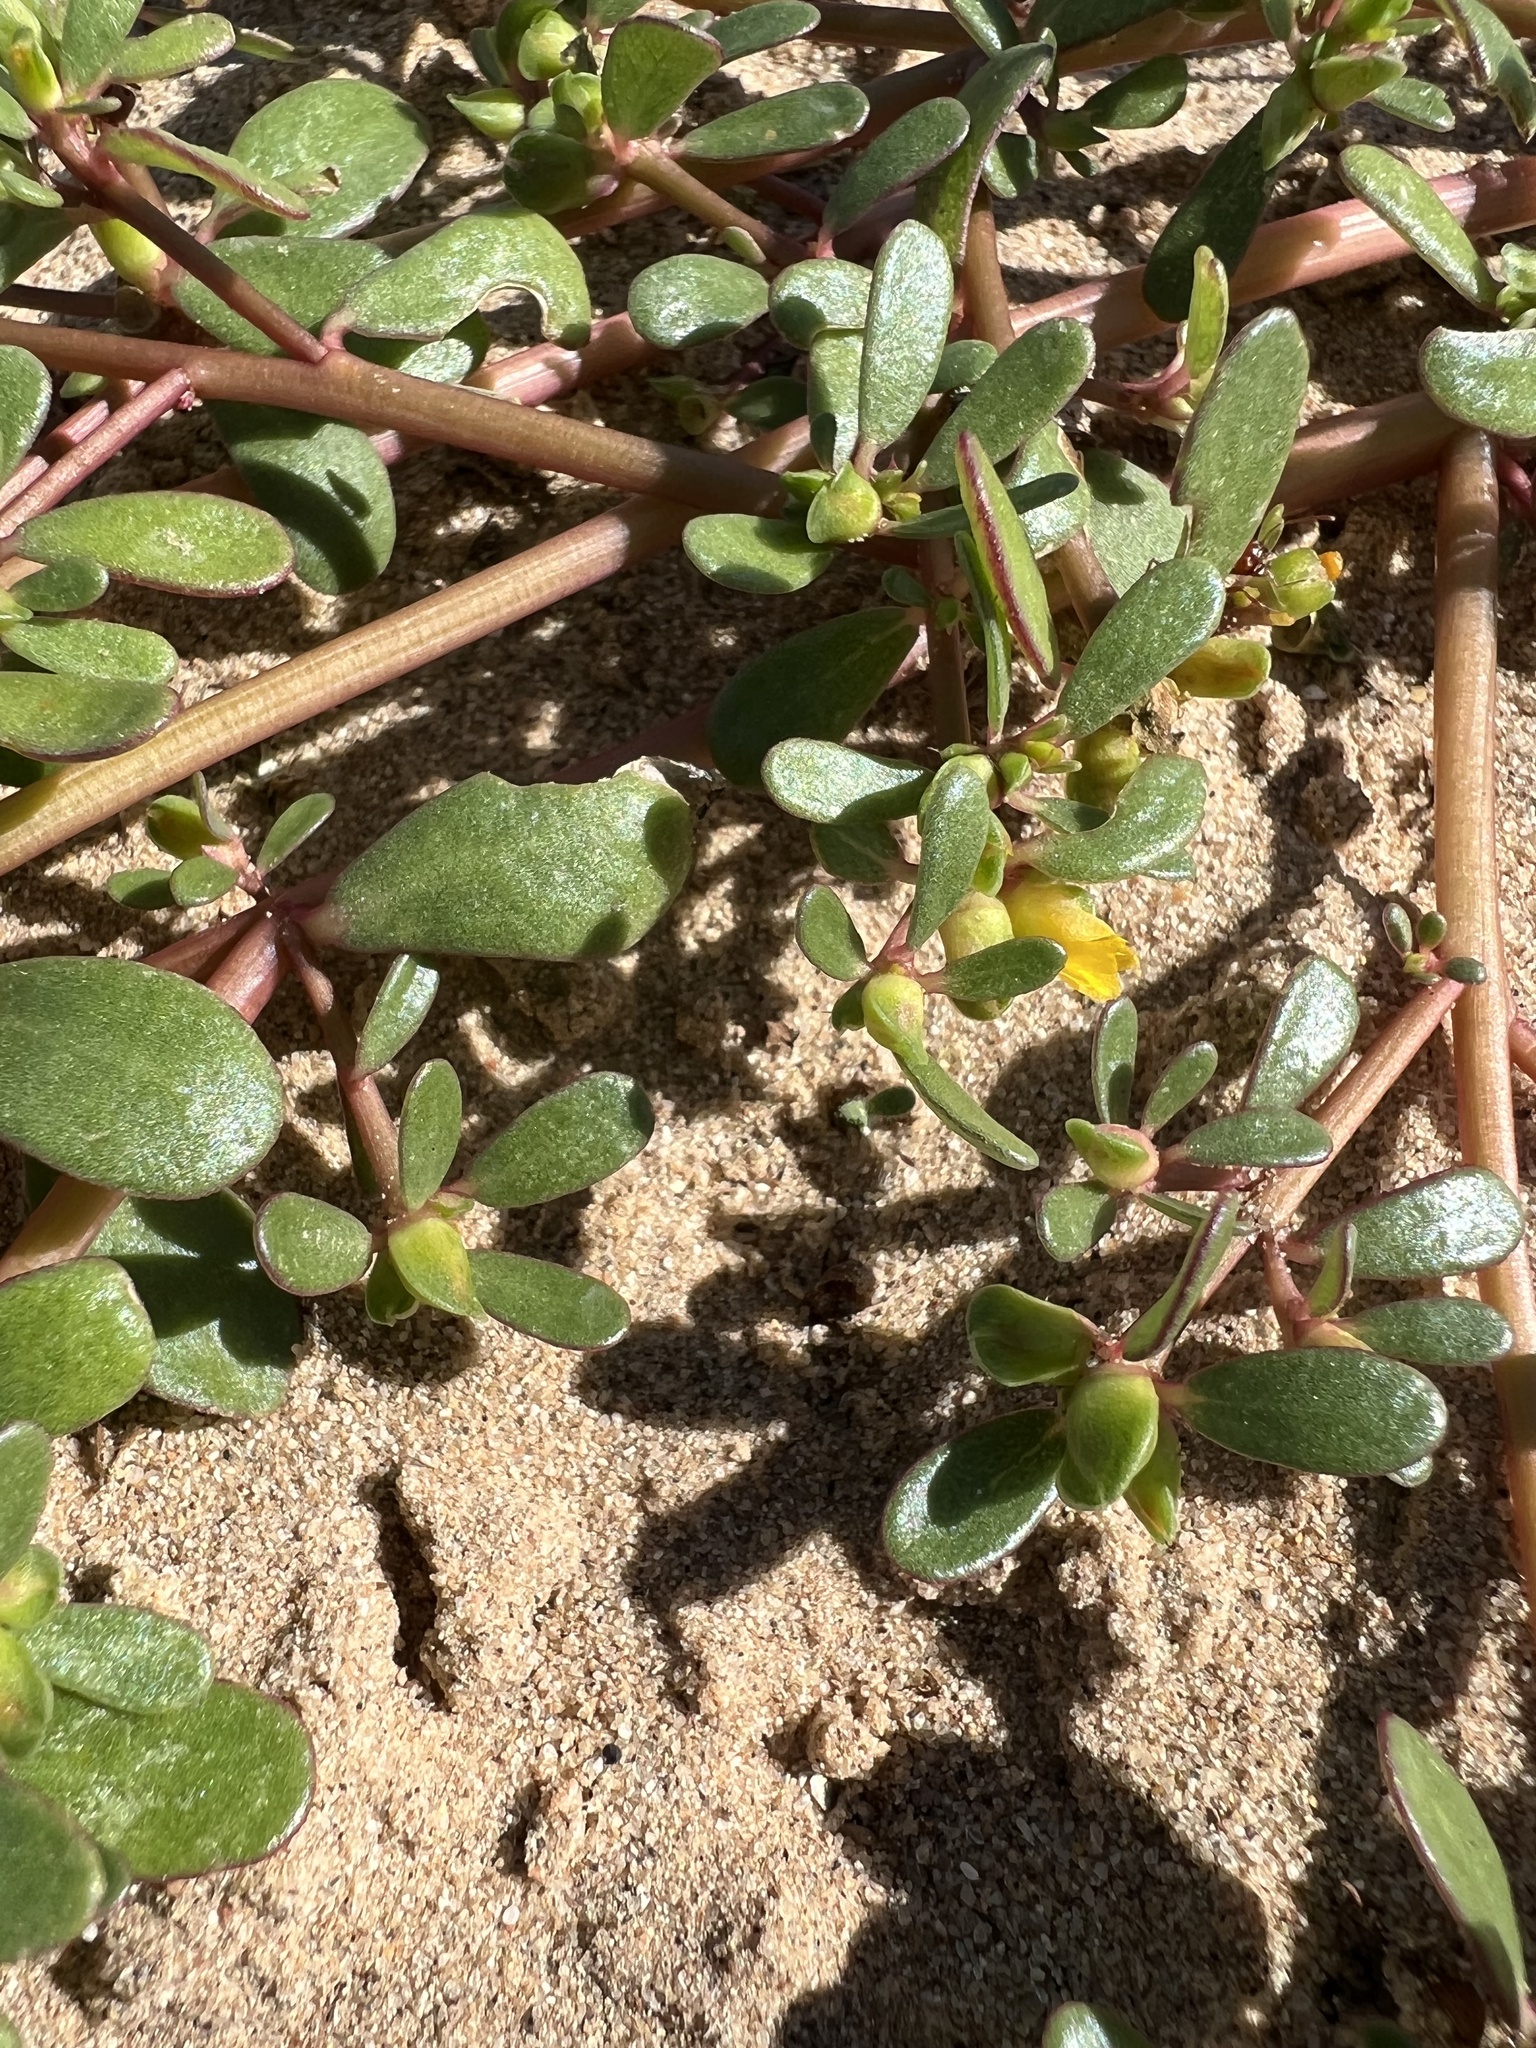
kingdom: Plantae
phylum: Tracheophyta
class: Magnoliopsida
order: Caryophyllales
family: Portulacaceae
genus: Portulaca
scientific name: Portulaca oleracea
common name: Common purslane
